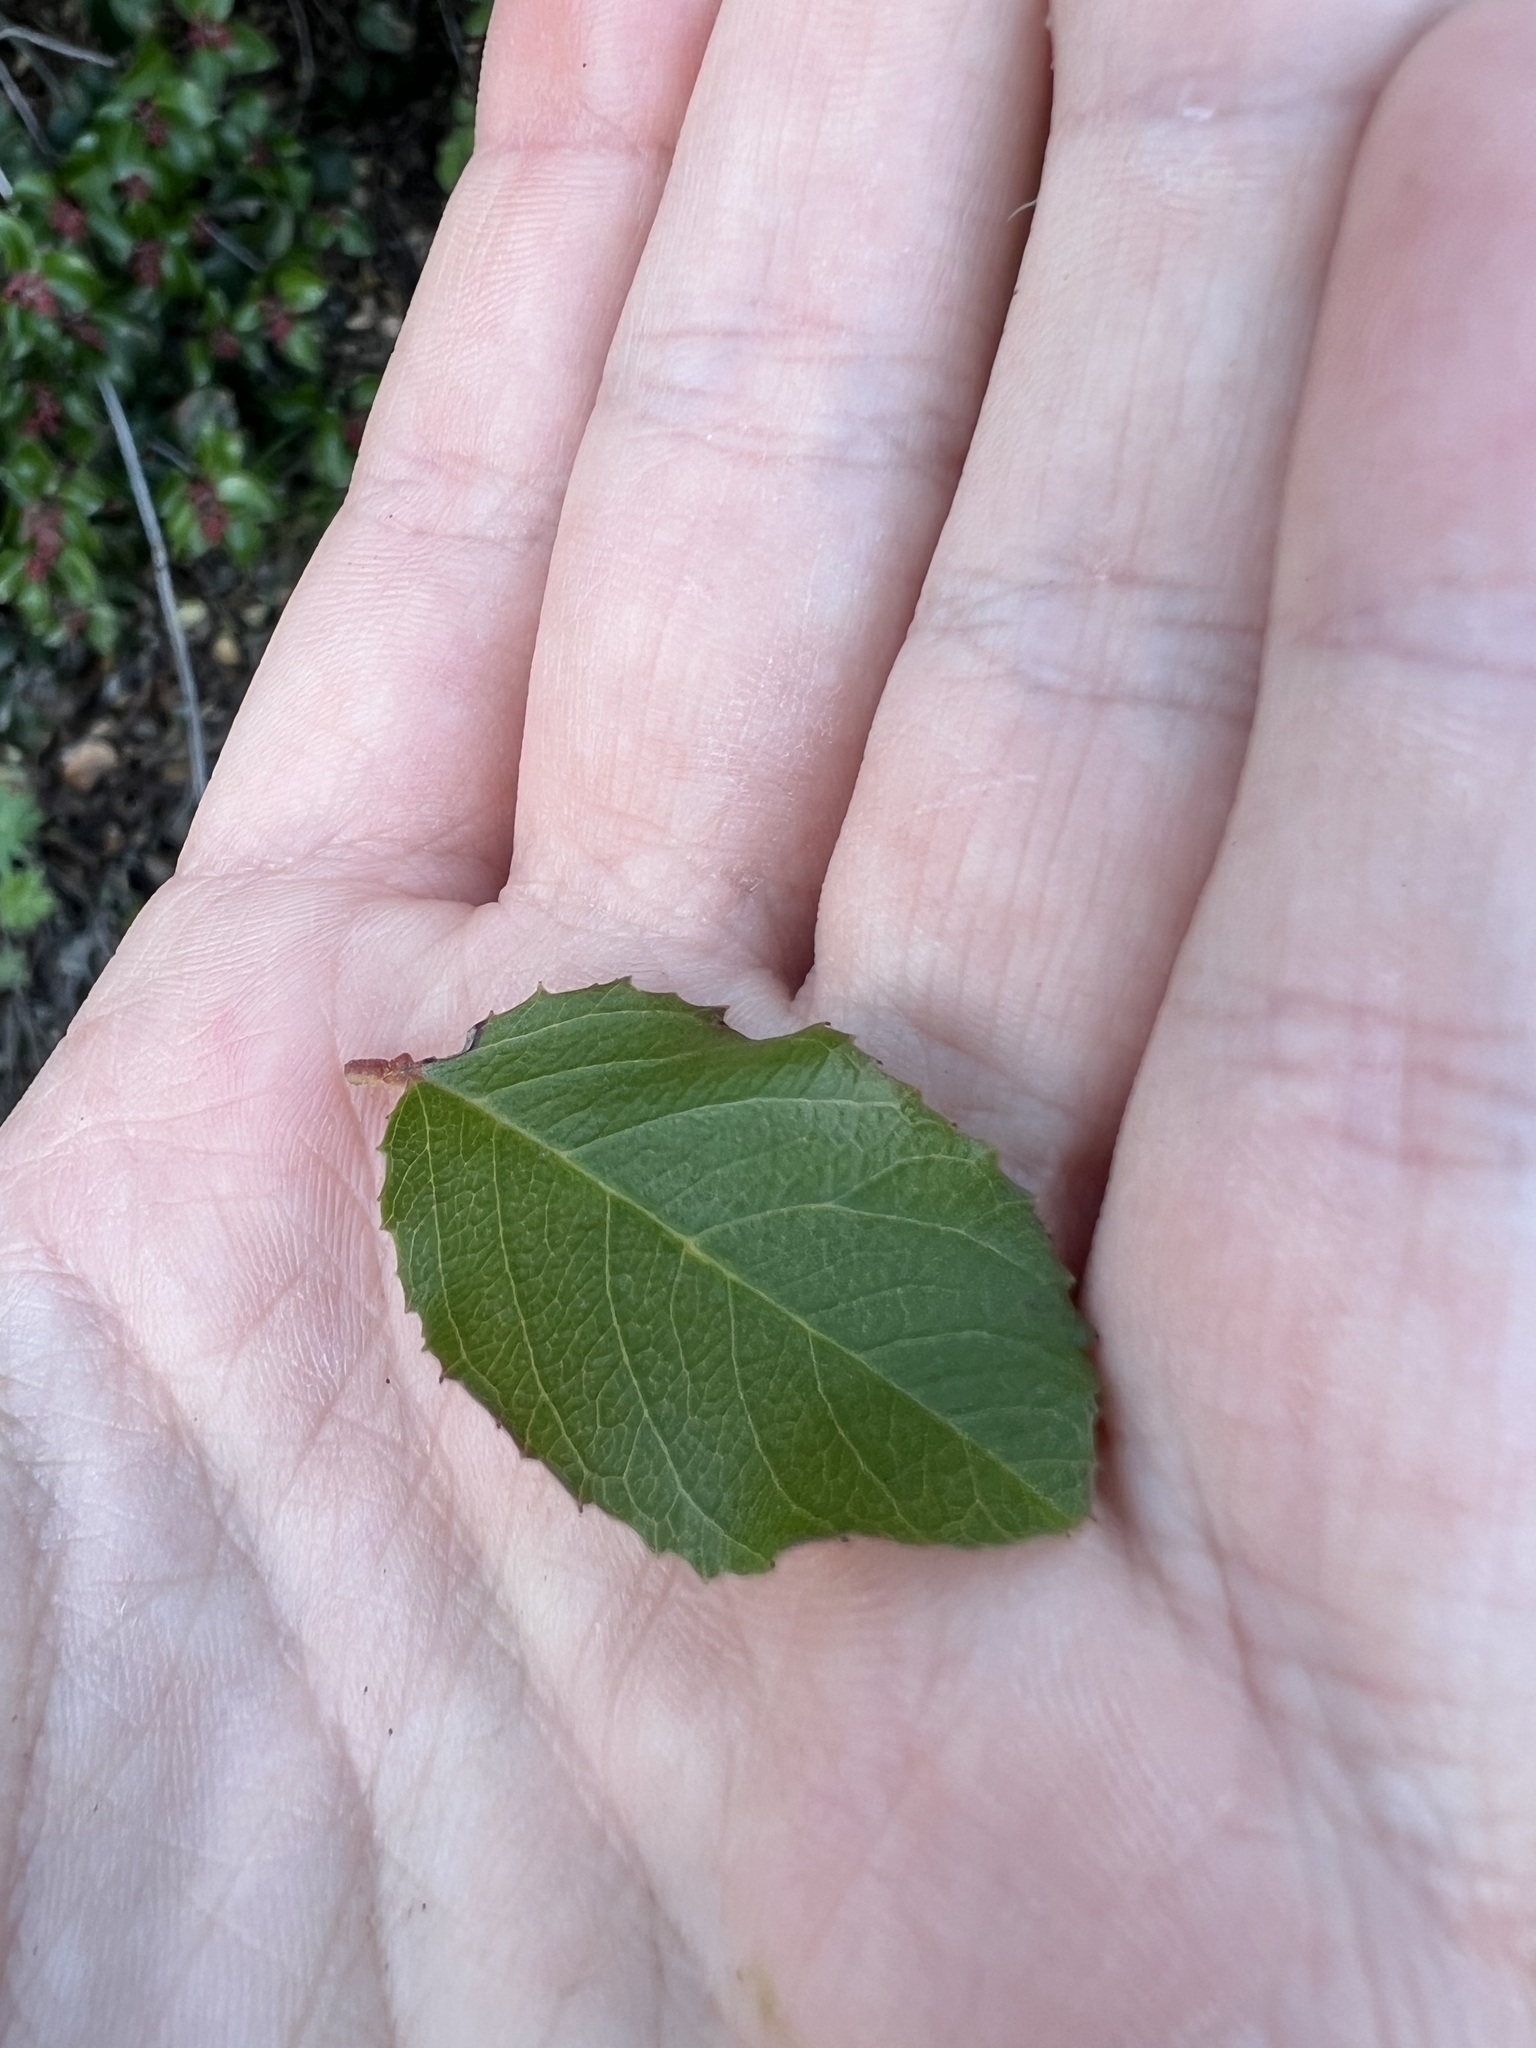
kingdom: Plantae
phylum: Tracheophyta
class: Magnoliopsida
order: Rosales
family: Rhamnaceae
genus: Endotropis
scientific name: Endotropis crocea
